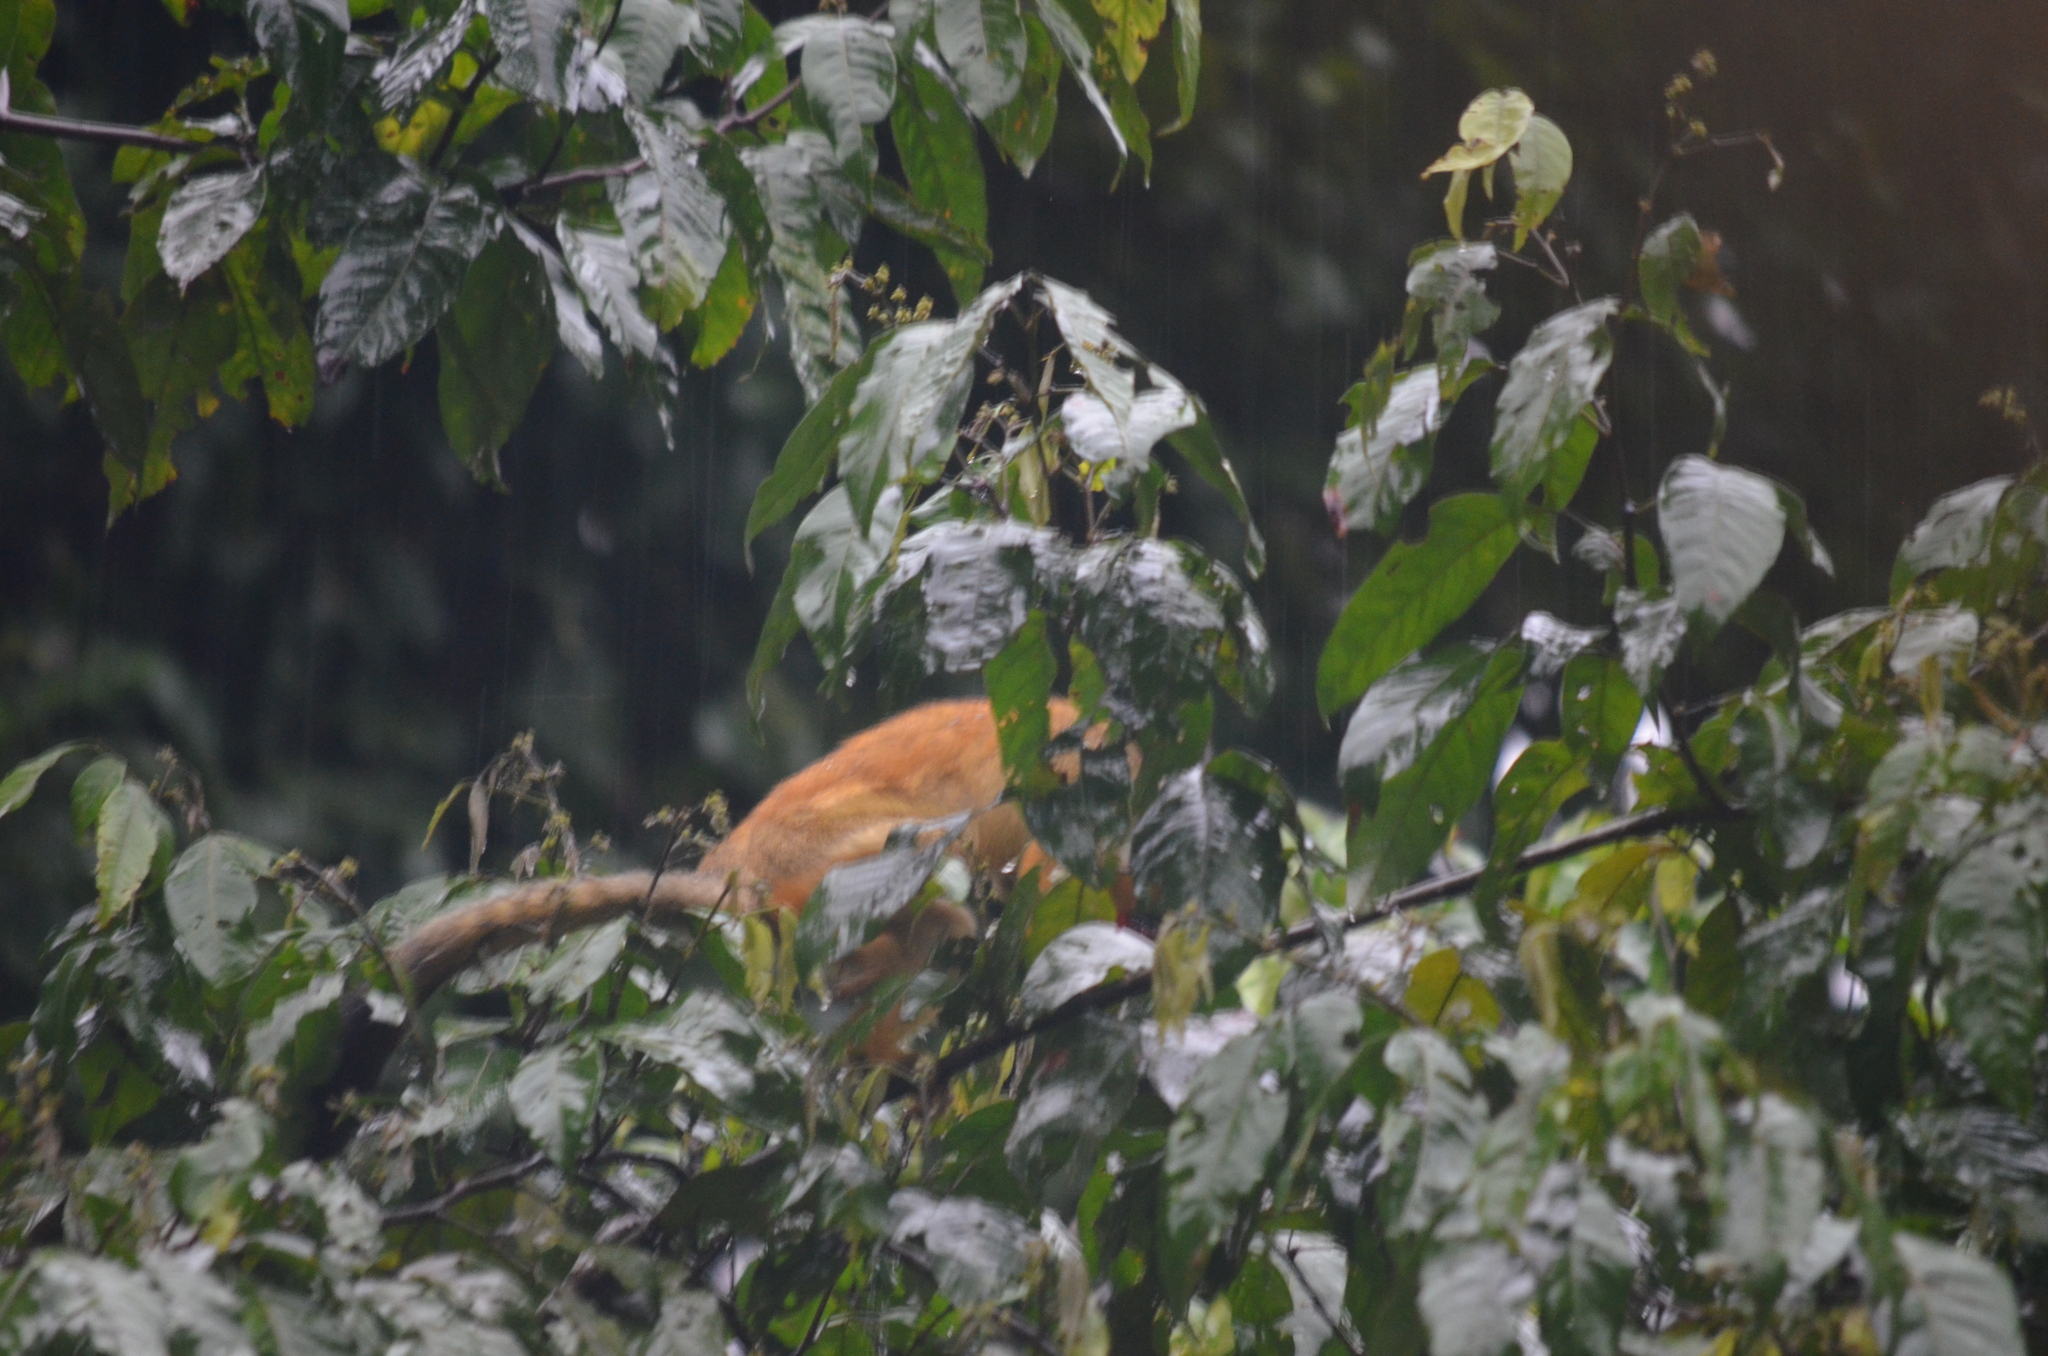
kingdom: Animalia
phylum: Chordata
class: Mammalia
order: Primates
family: Cebidae
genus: Saimiri
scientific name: Saimiri oerstedii
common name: Central american squirrel monkey
